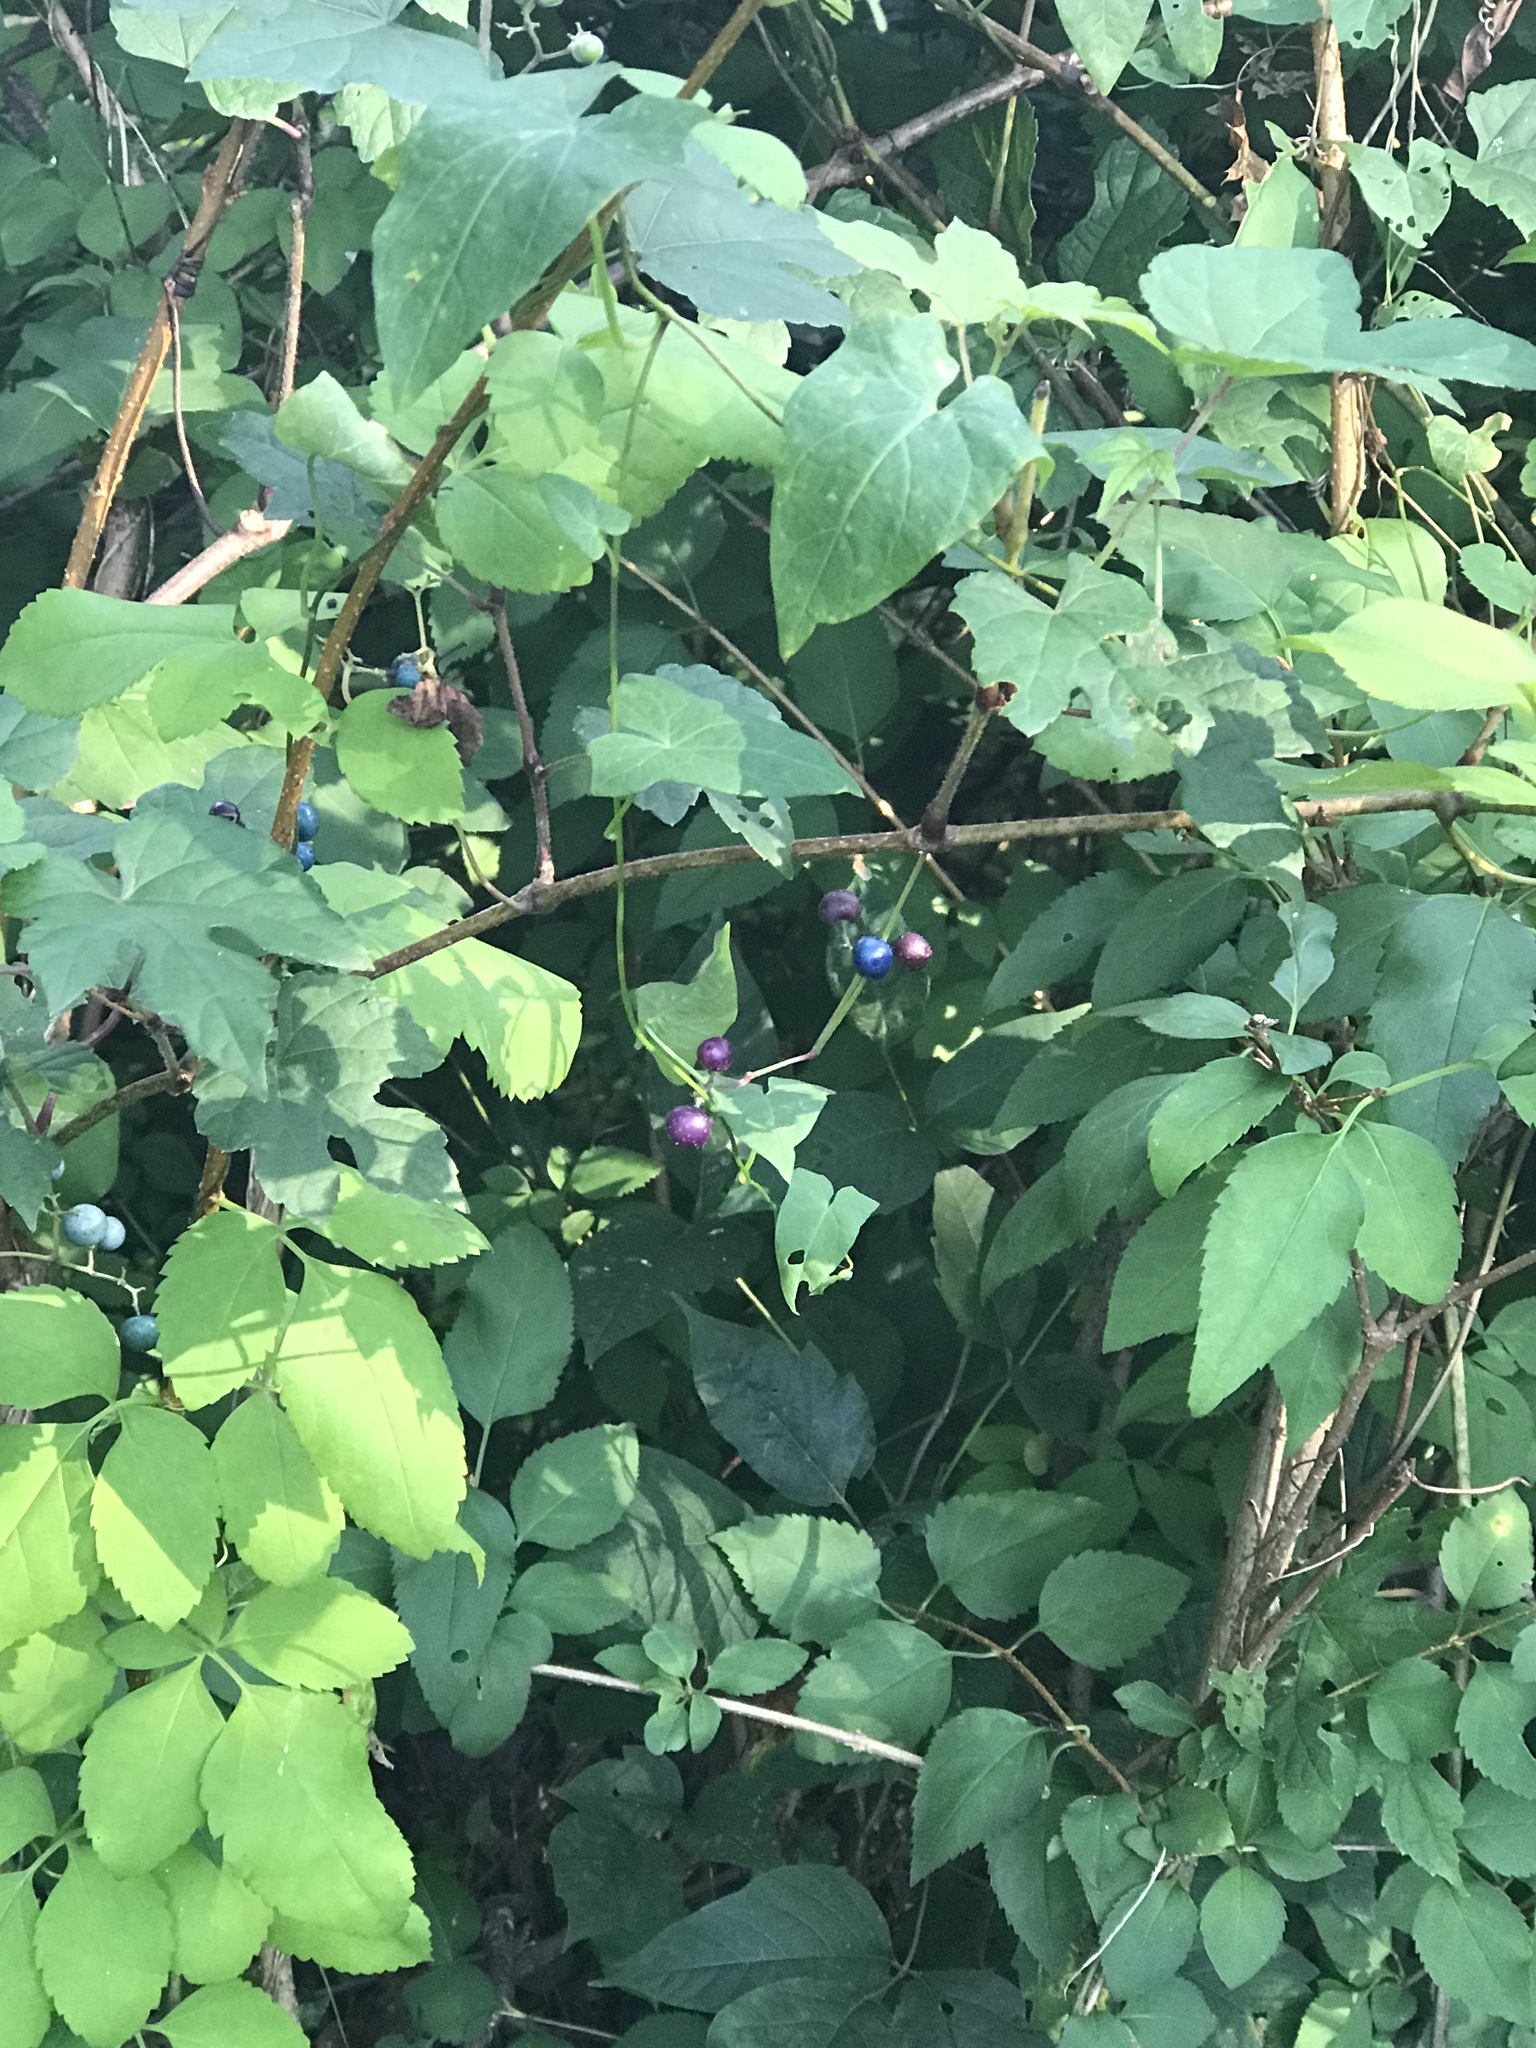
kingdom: Plantae
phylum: Tracheophyta
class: Magnoliopsida
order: Vitales
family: Vitaceae
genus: Ampelopsis
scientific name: Ampelopsis glandulosa
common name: Amur peppervine
